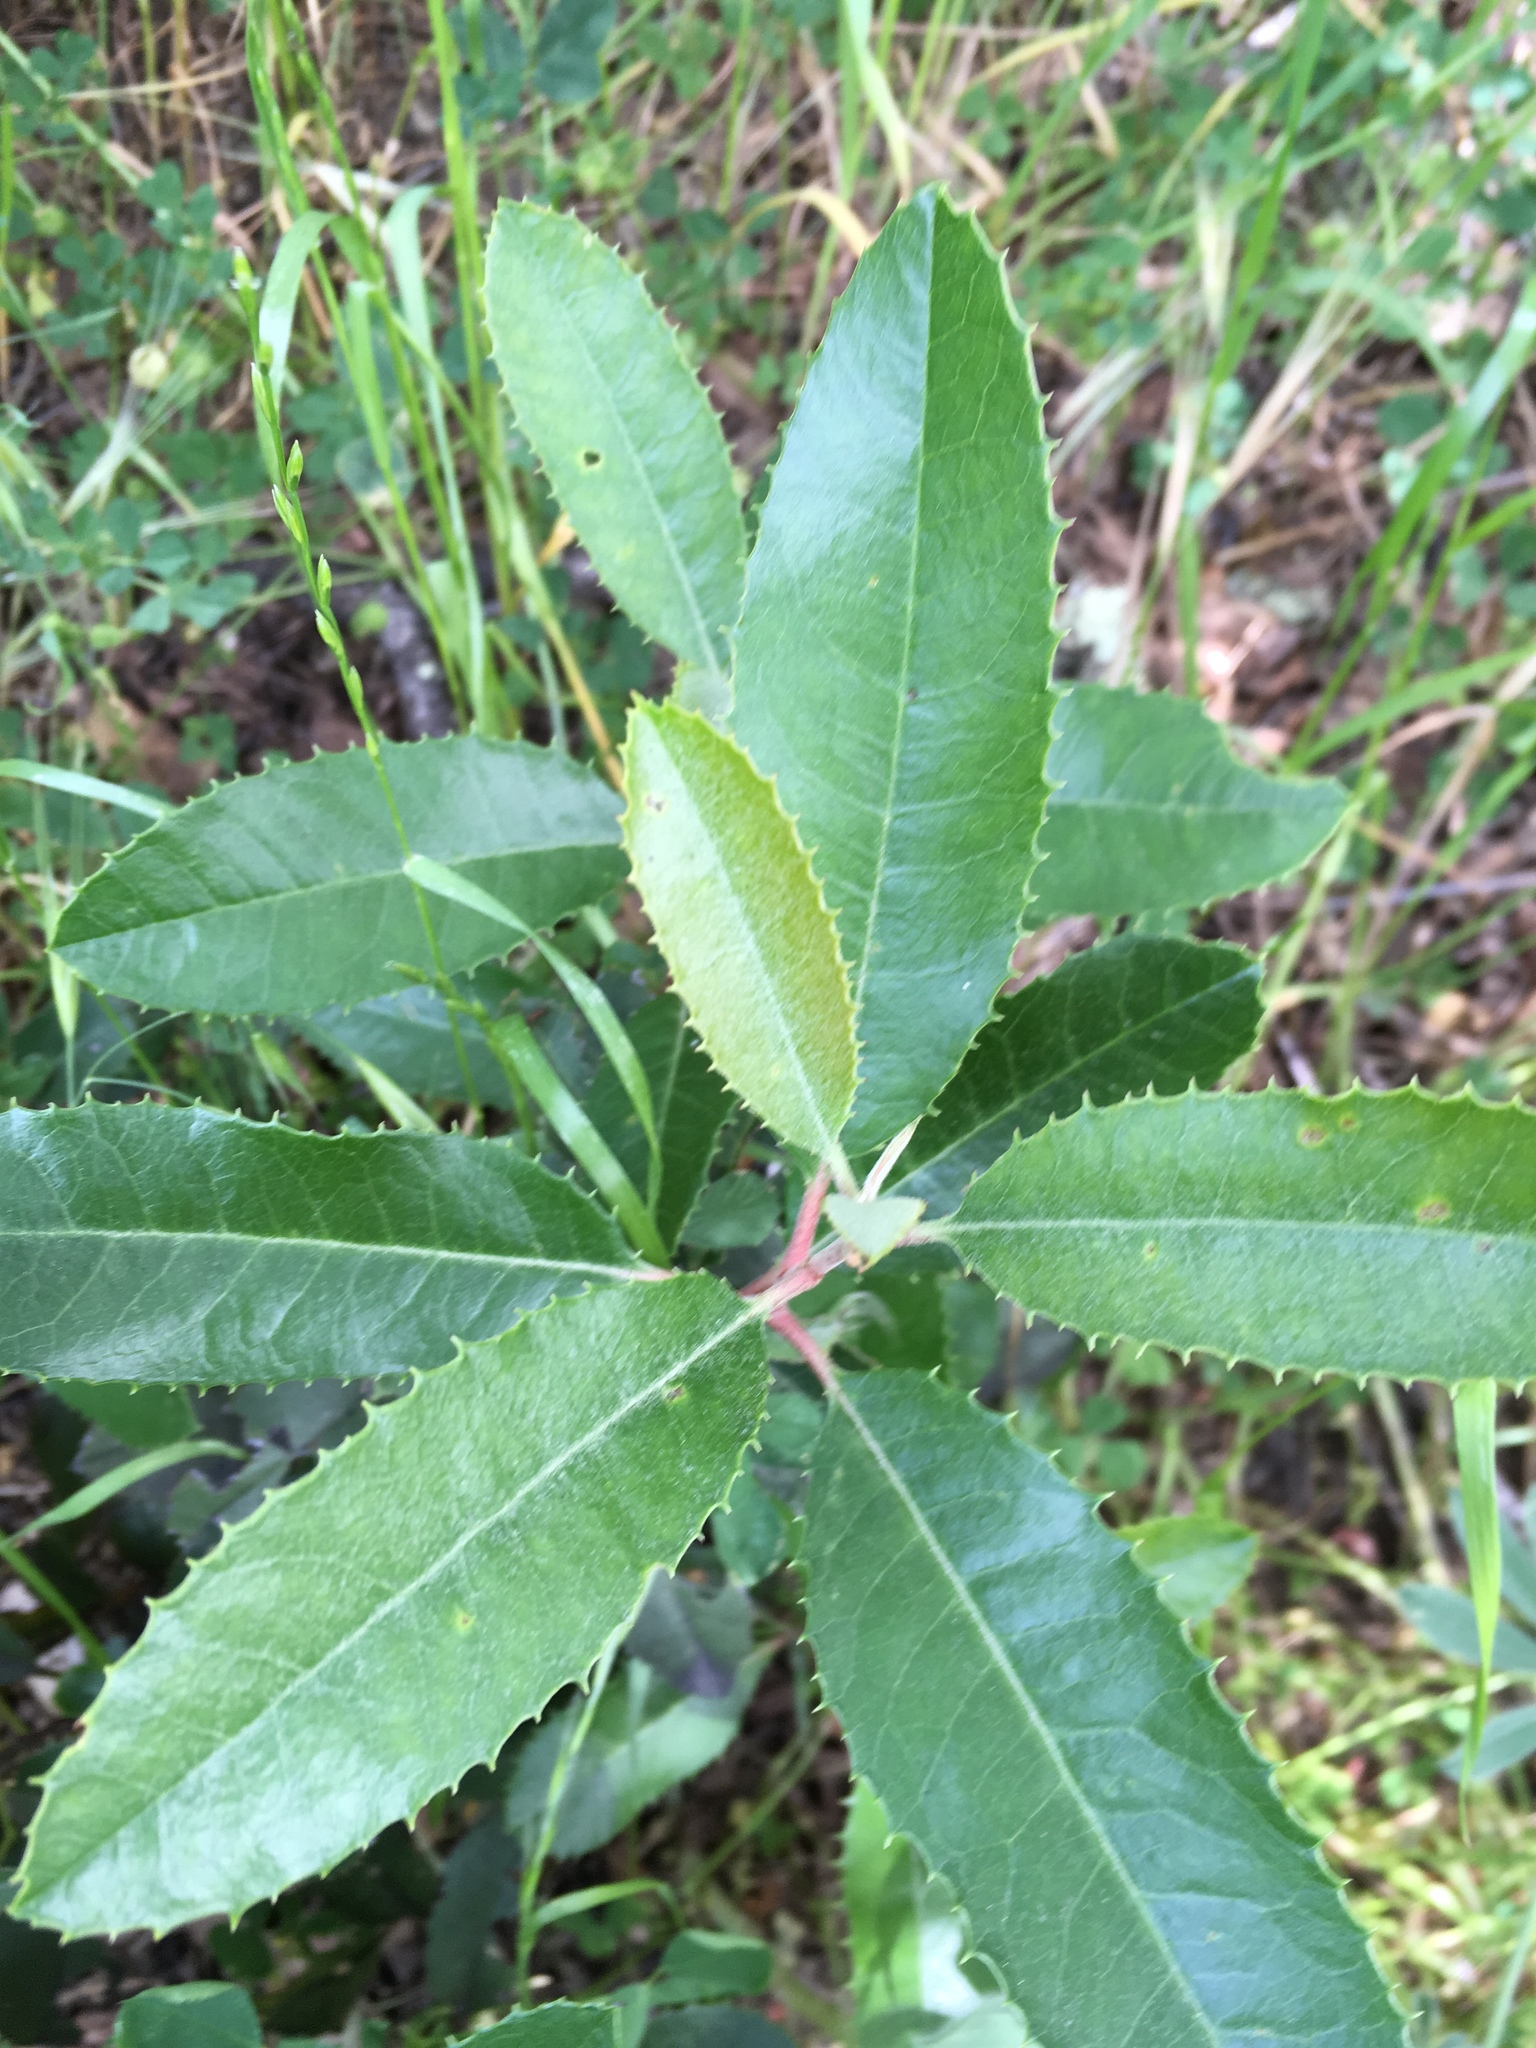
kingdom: Plantae
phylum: Tracheophyta
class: Magnoliopsida
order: Rosales
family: Rosaceae
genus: Heteromeles
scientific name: Heteromeles arbutifolia
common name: California-holly
